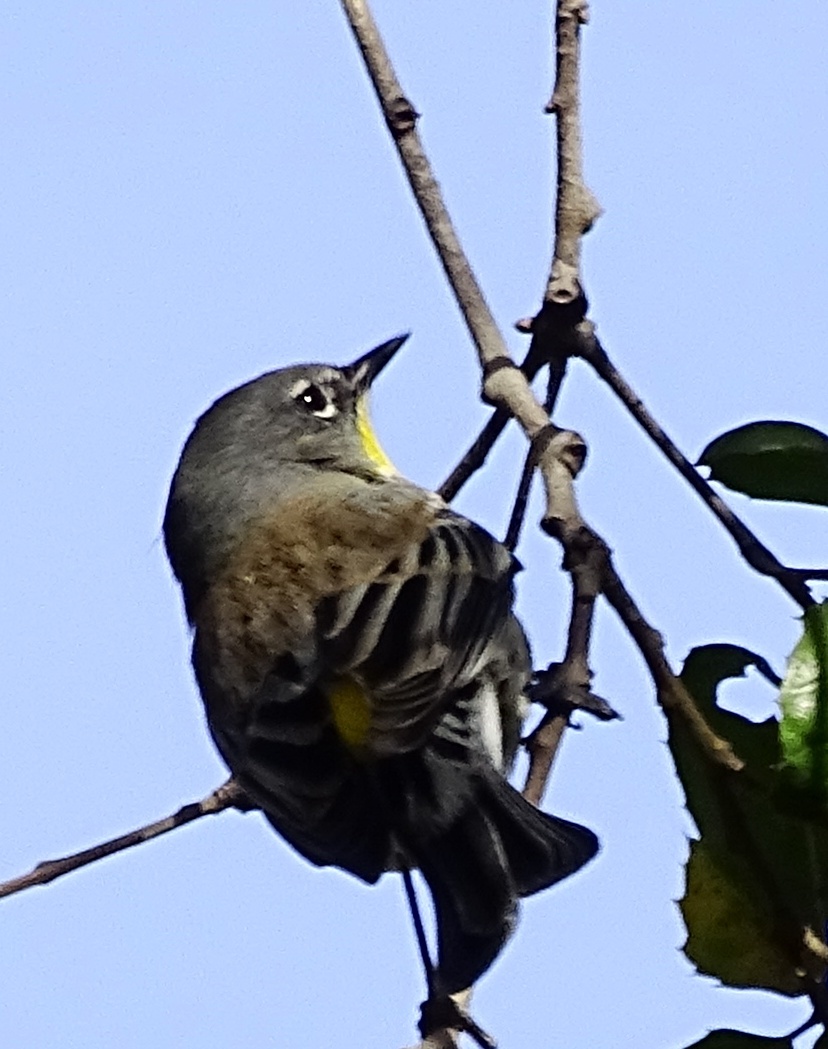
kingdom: Animalia
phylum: Chordata
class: Aves
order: Passeriformes
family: Parulidae
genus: Setophaga
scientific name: Setophaga auduboni
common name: Audubon's warbler
